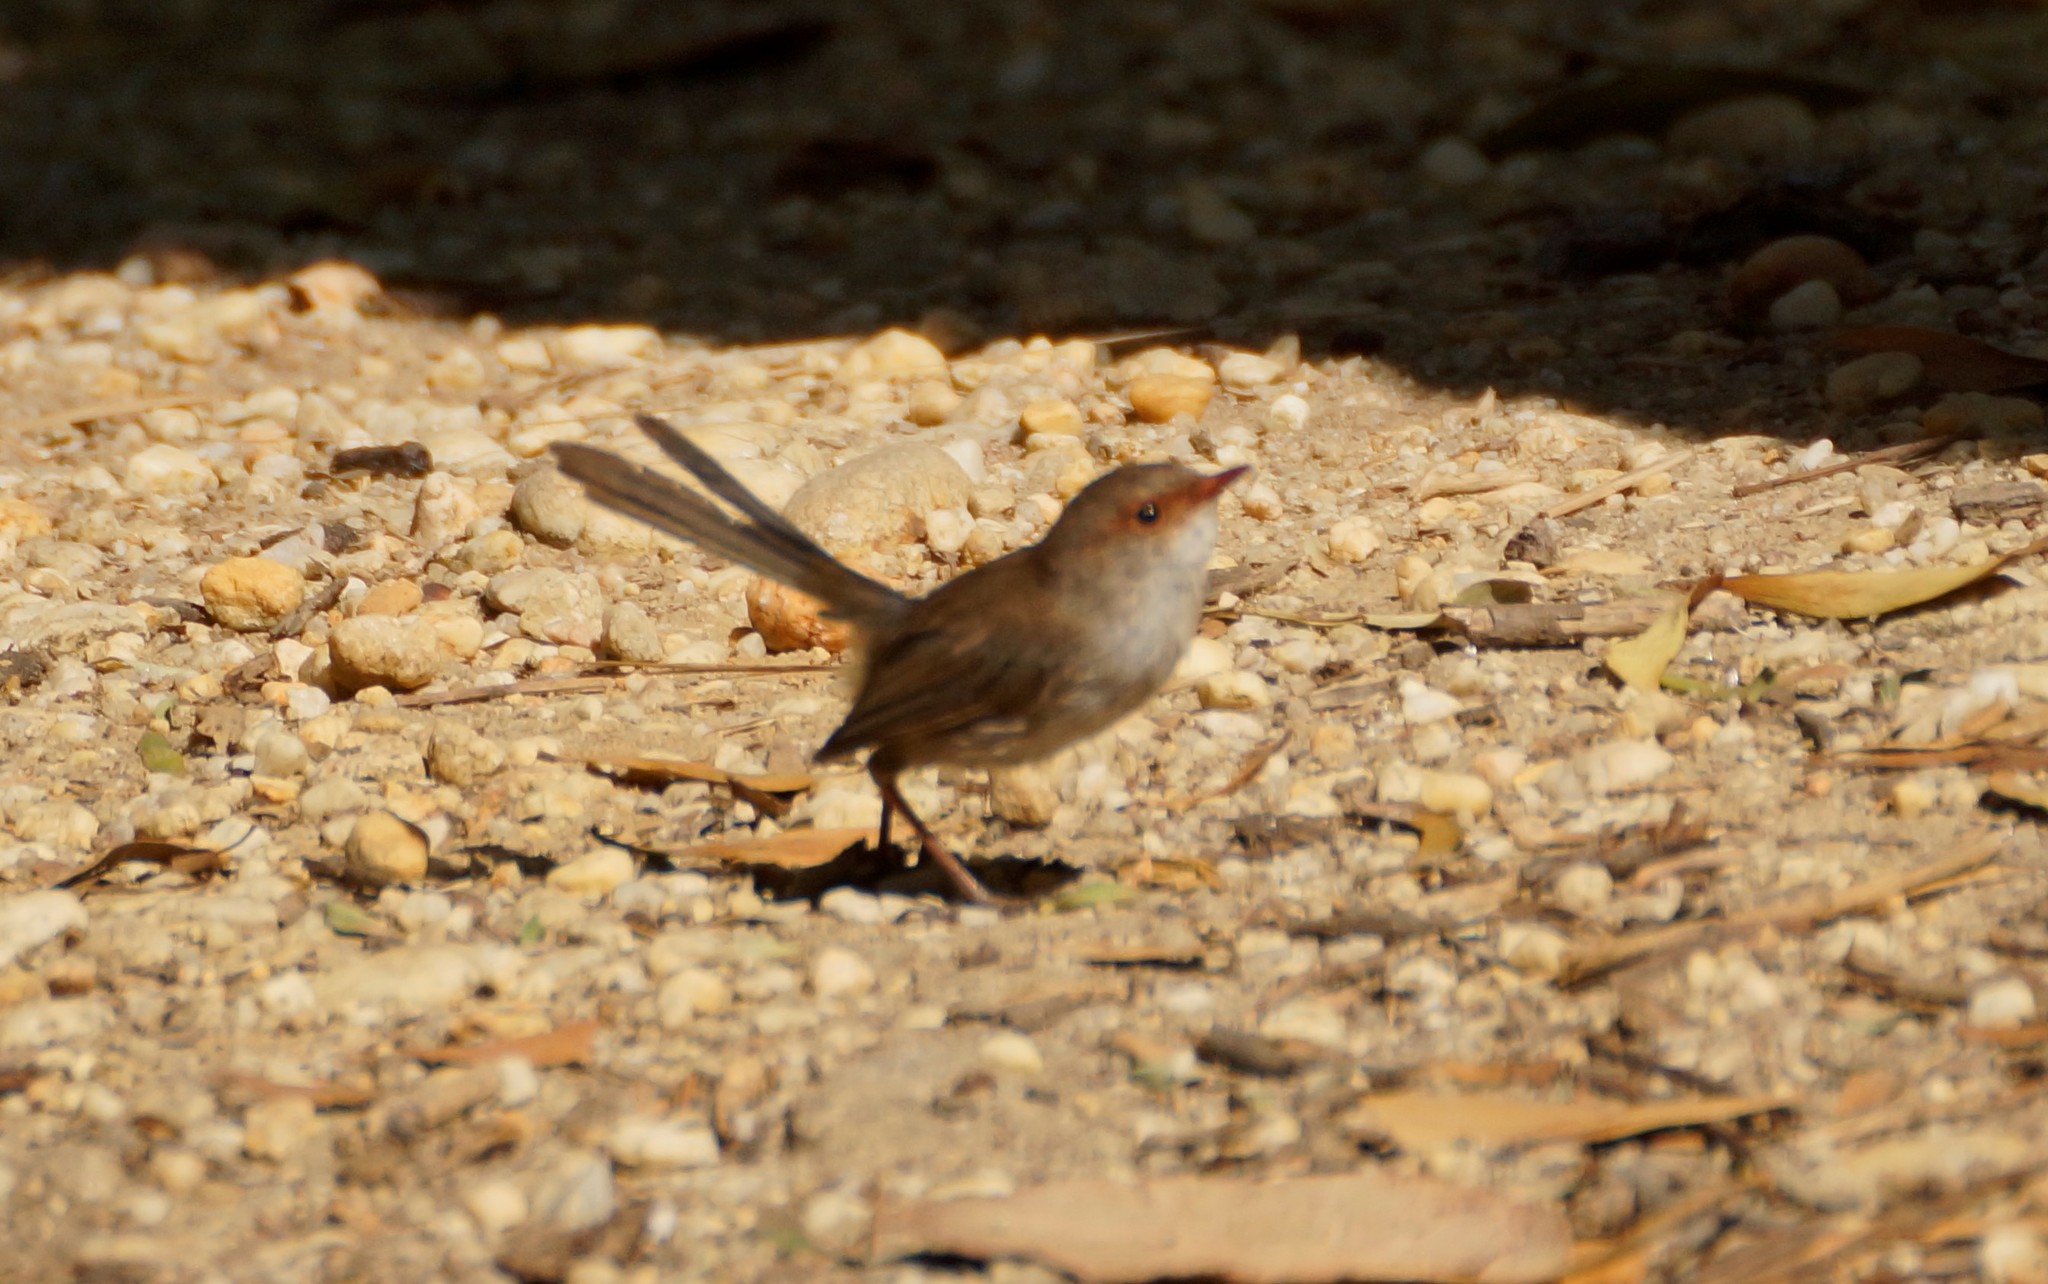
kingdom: Animalia
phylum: Chordata
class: Aves
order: Passeriformes
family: Maluridae
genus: Malurus
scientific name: Malurus cyaneus
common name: Superb fairywren
